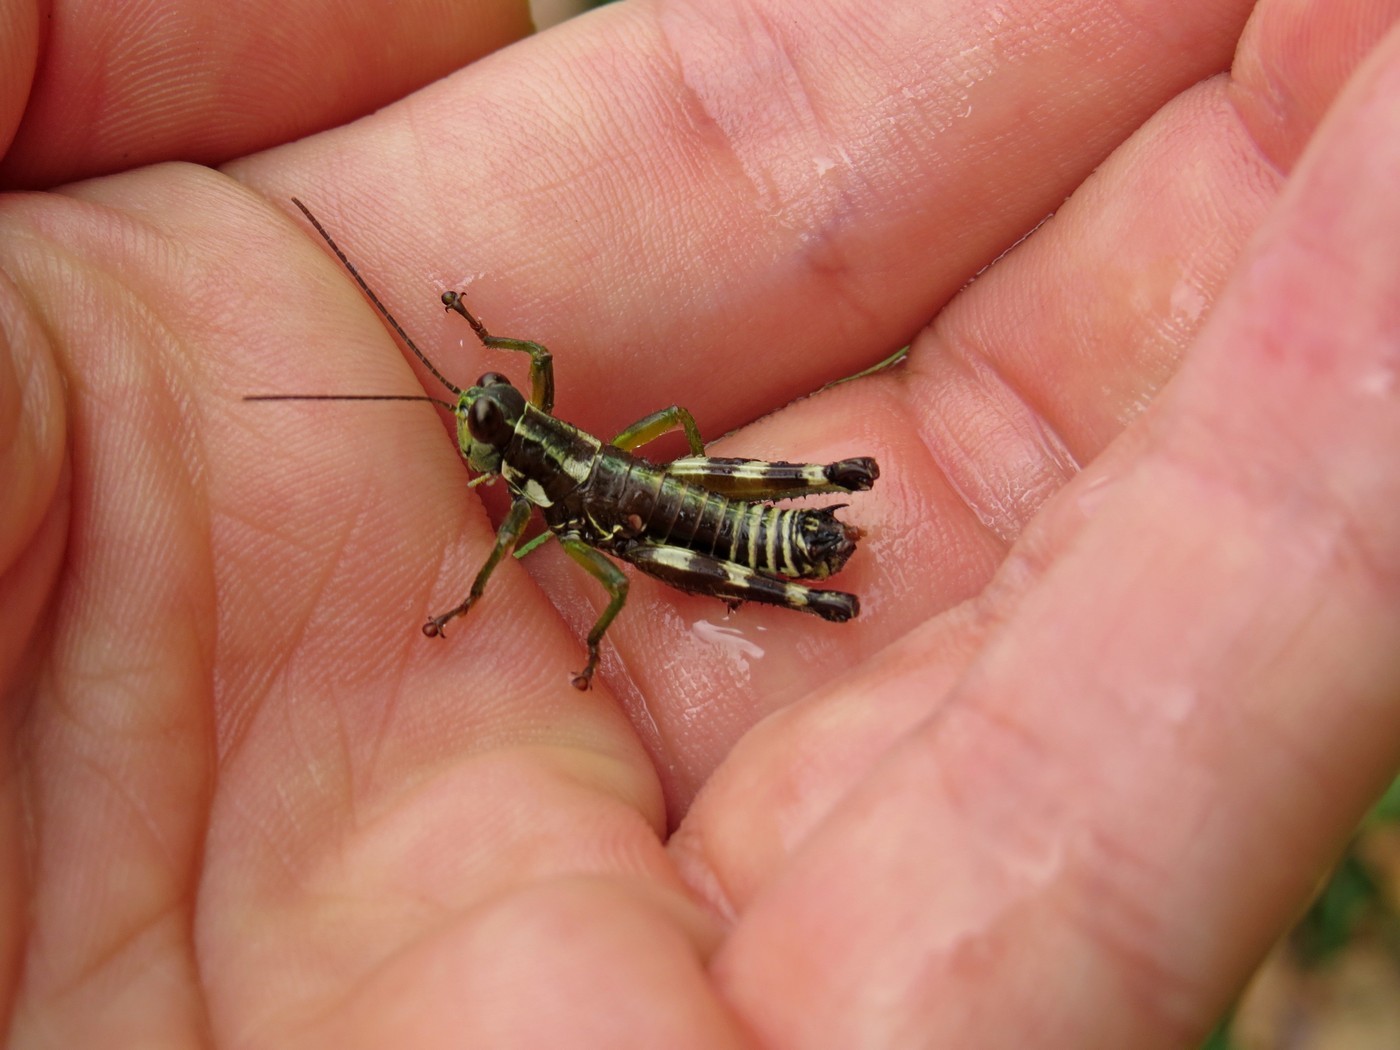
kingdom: Animalia
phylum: Arthropoda
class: Insecta
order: Orthoptera
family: Acrididae
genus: Booneacris
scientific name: Booneacris glacialis
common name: Wingless mountain grasshopper
